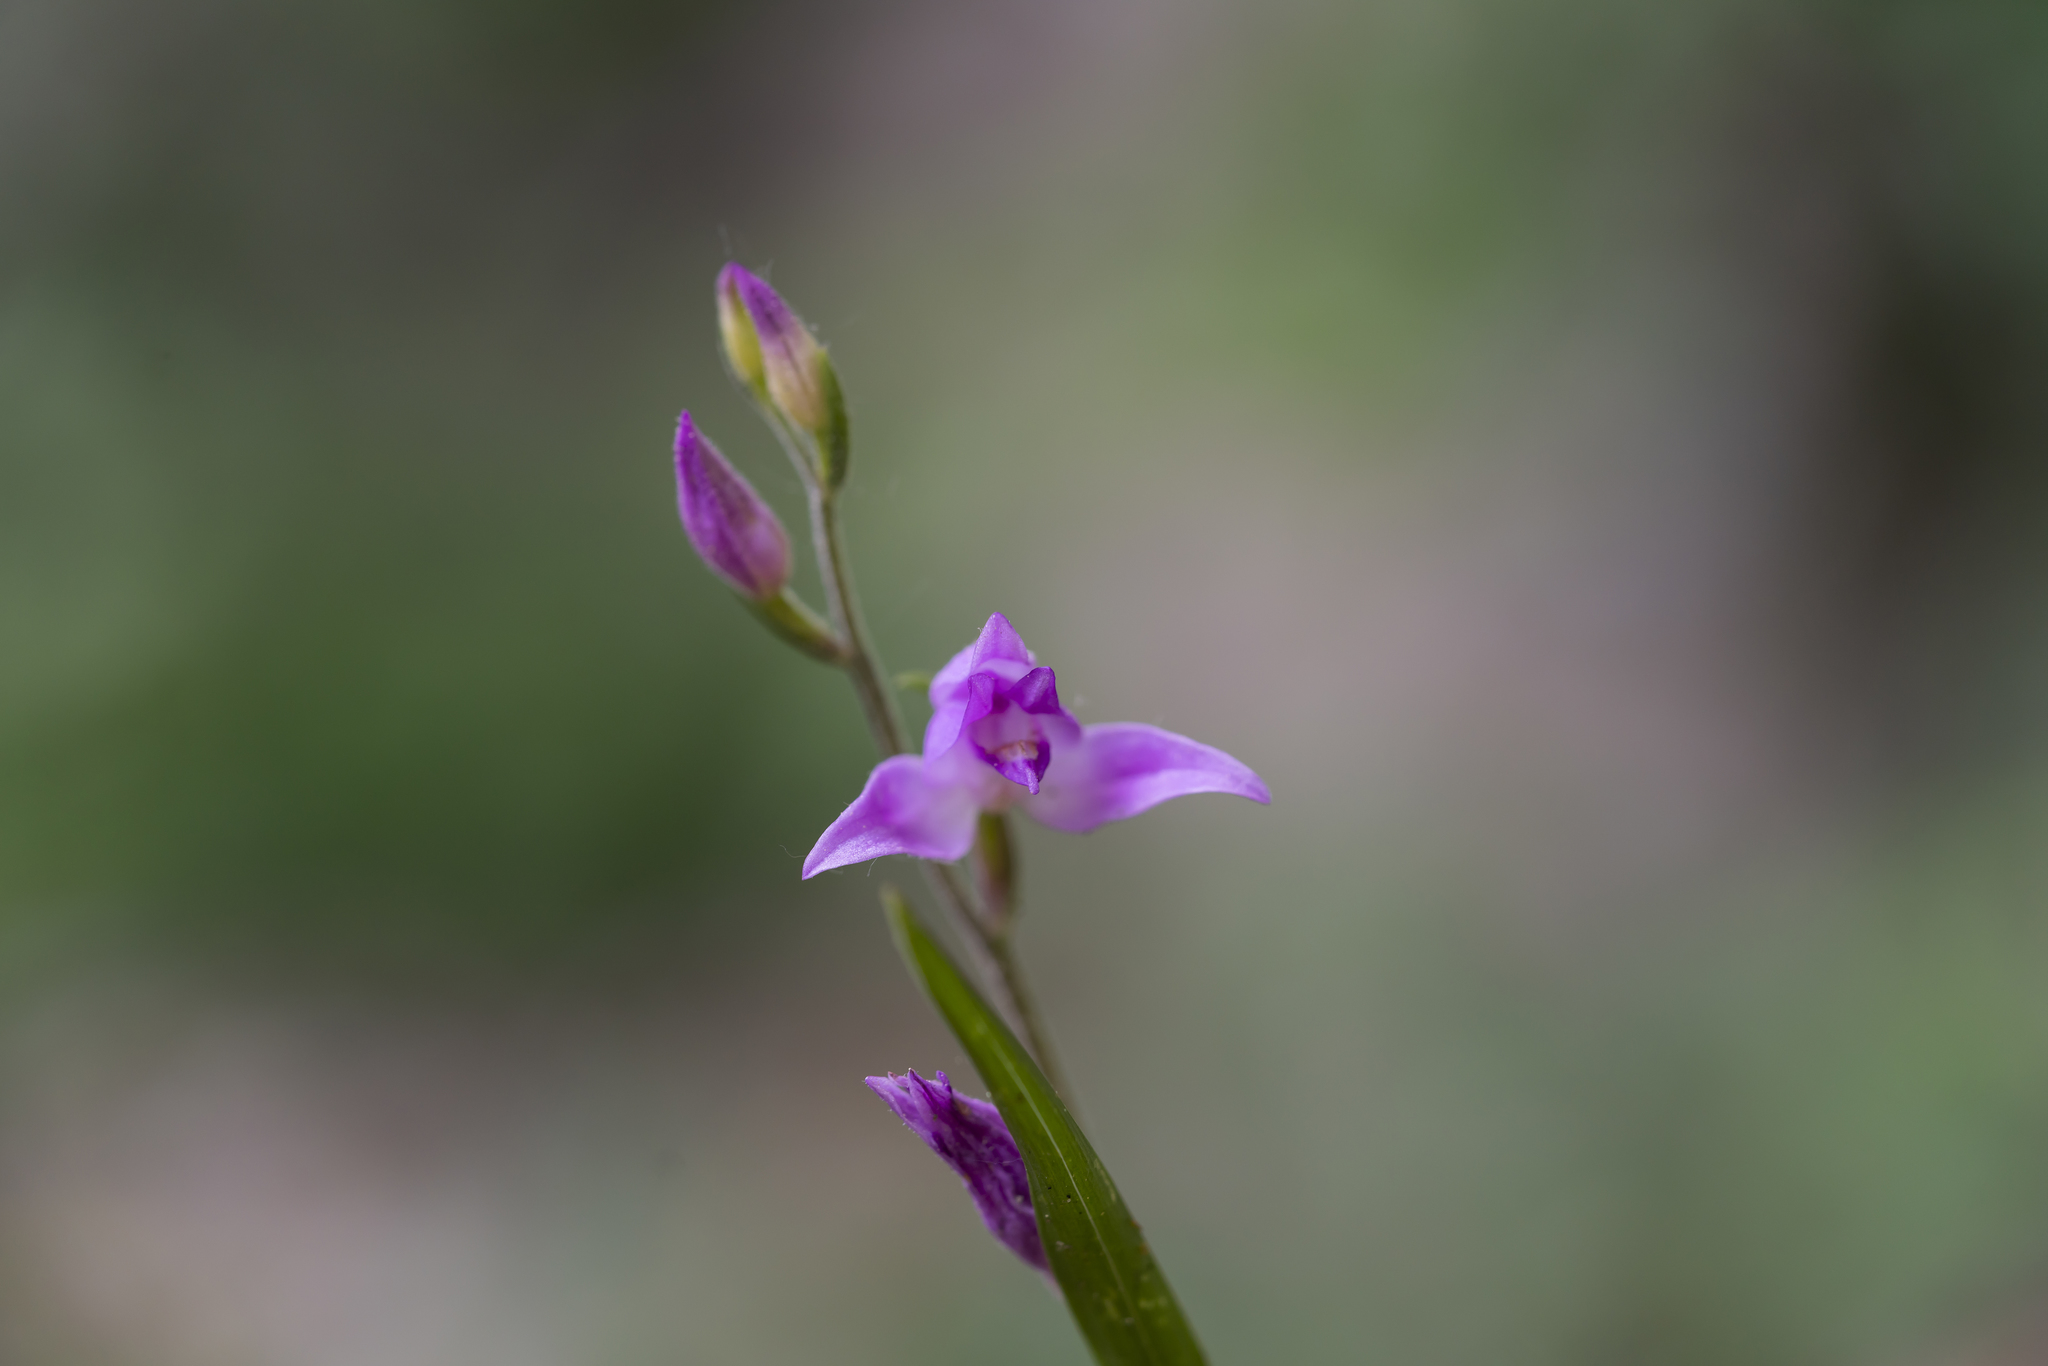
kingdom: Plantae
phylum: Tracheophyta
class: Liliopsida
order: Asparagales
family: Orchidaceae
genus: Cephalanthera
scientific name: Cephalanthera rubra
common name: Red helleborine
